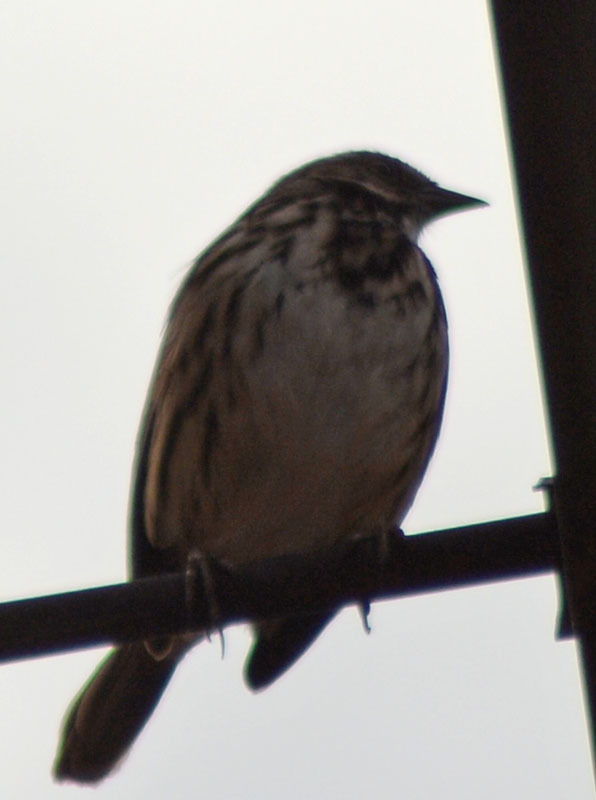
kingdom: Animalia
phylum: Chordata
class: Aves
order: Passeriformes
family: Passerellidae
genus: Melospiza
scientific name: Melospiza melodia
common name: Song sparrow
